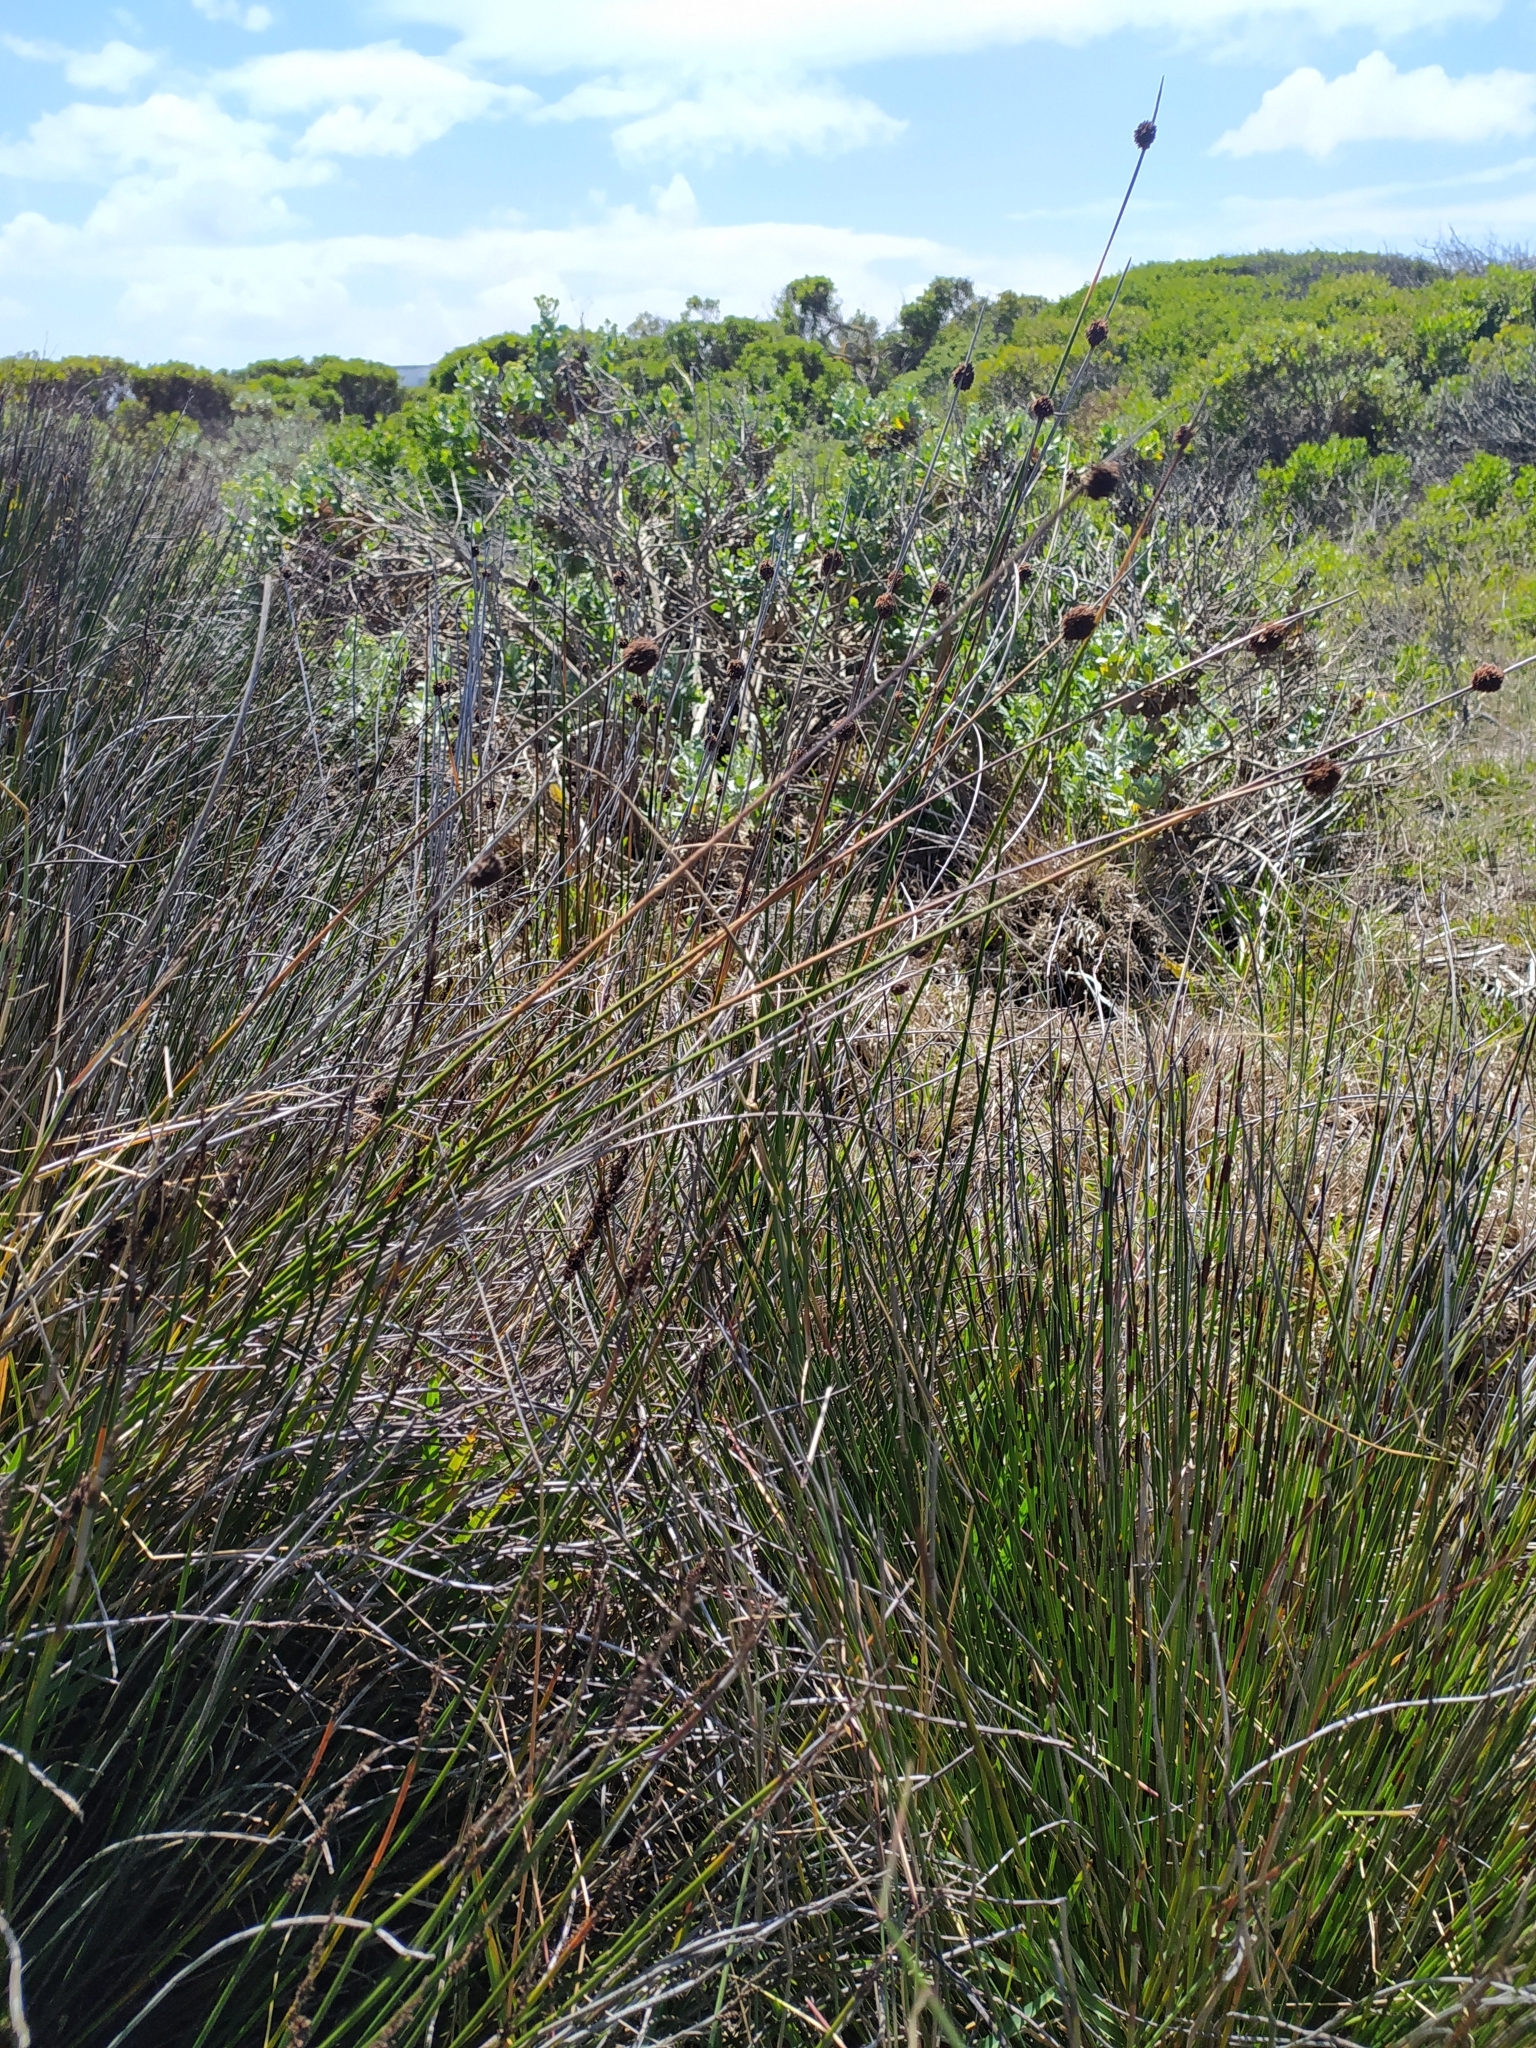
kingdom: Plantae
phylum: Tracheophyta
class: Liliopsida
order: Poales
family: Cyperaceae
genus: Ficinia
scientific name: Ficinia nodosa
